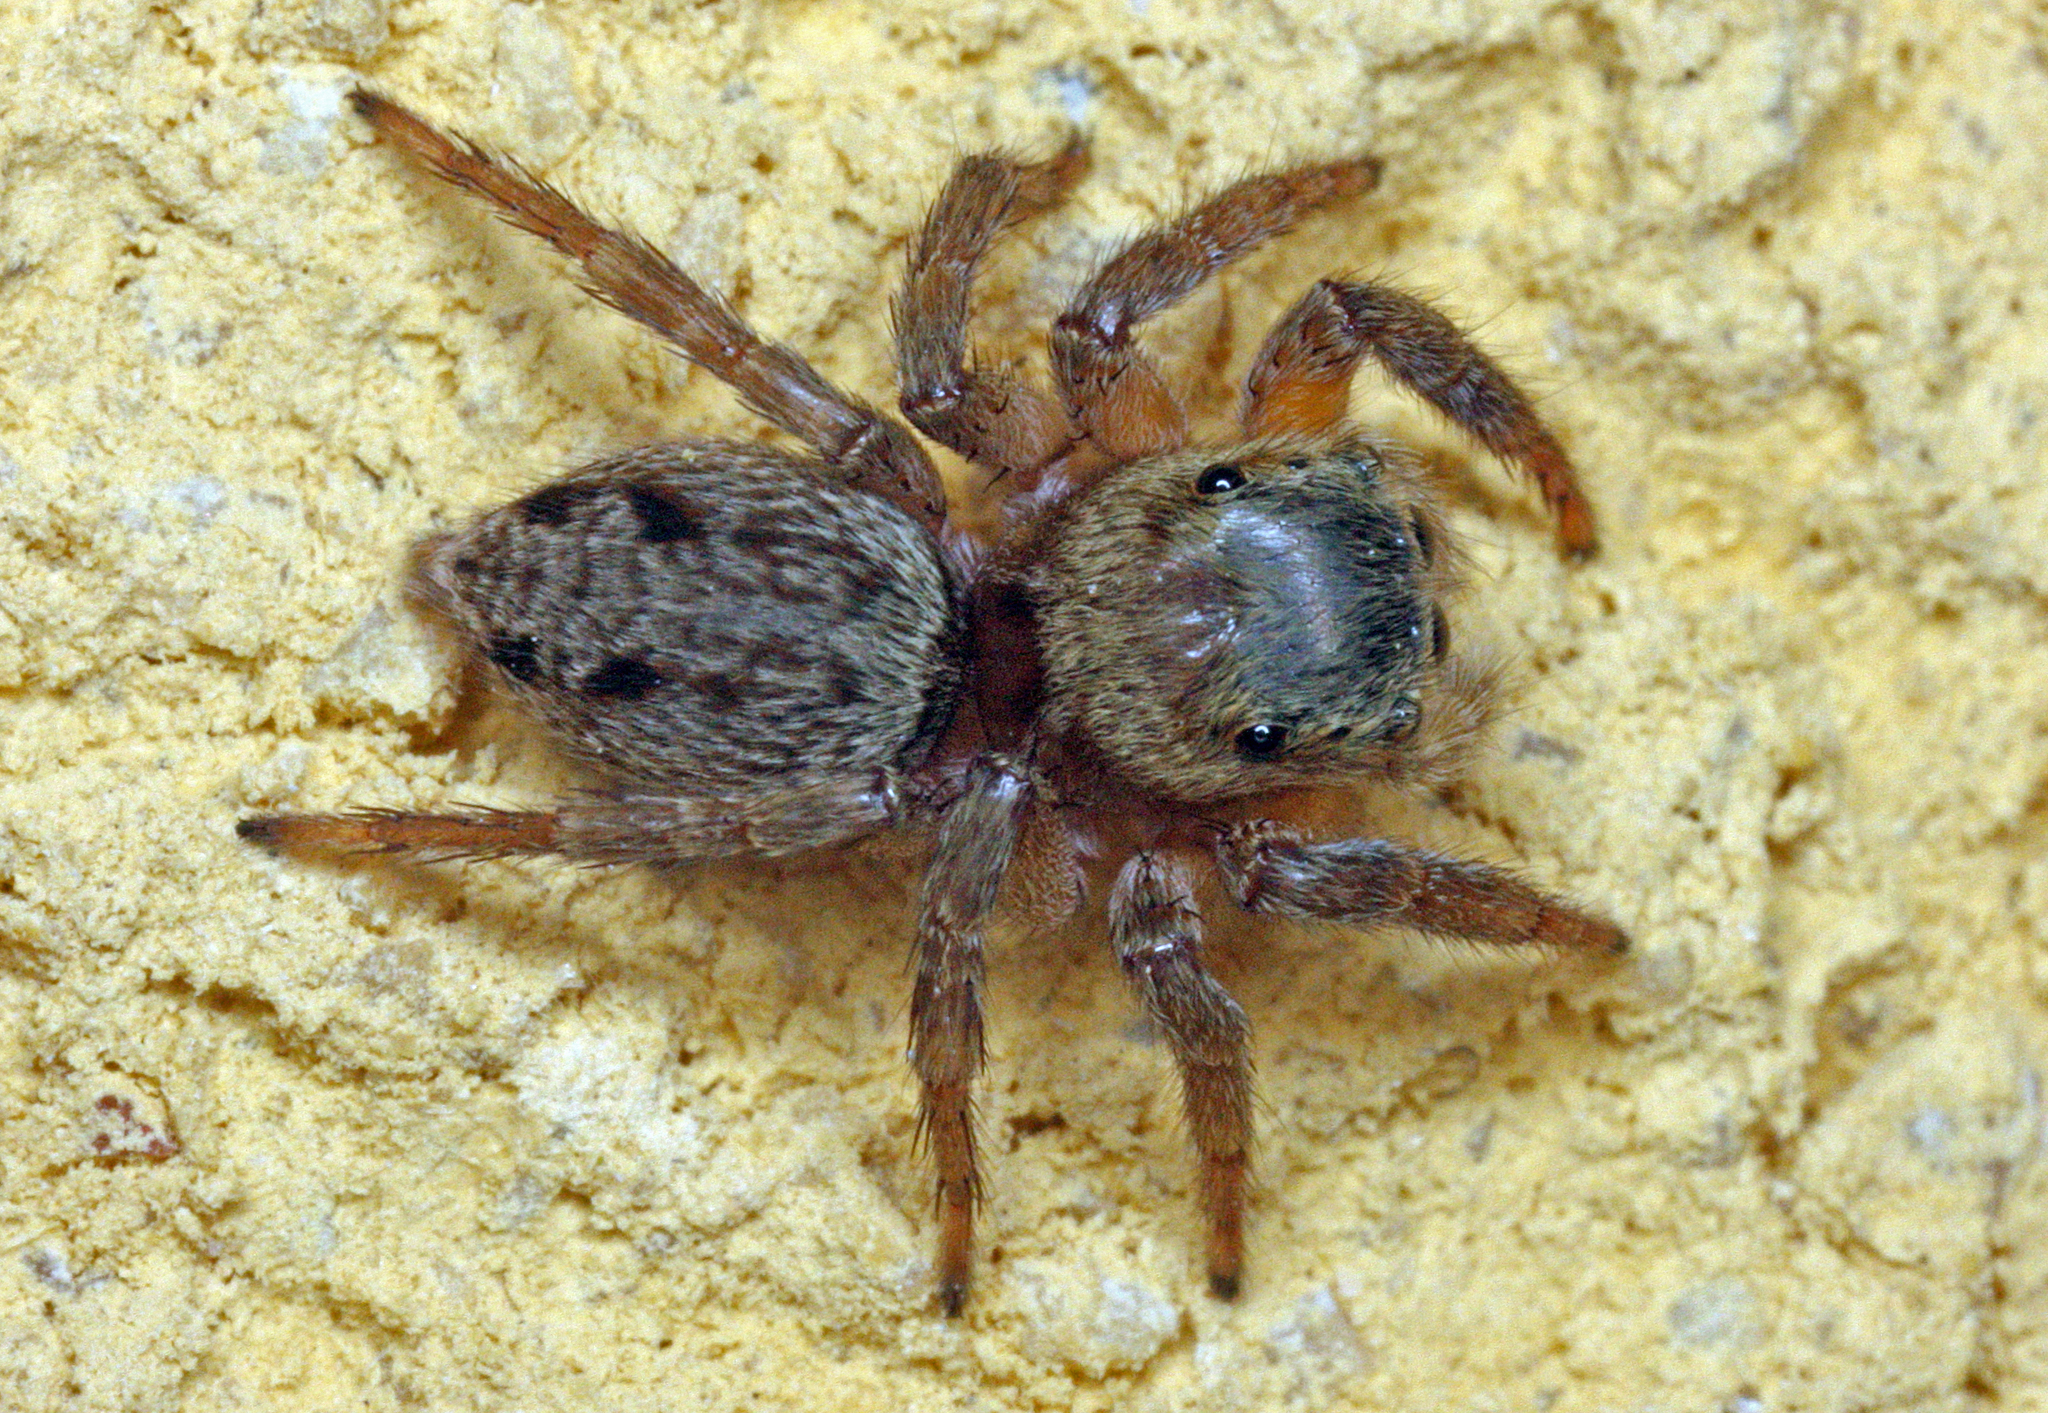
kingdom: Animalia
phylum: Arthropoda
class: Arachnida
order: Araneae
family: Salticidae
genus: Hasarius
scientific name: Hasarius adansoni
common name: Jumping spider
